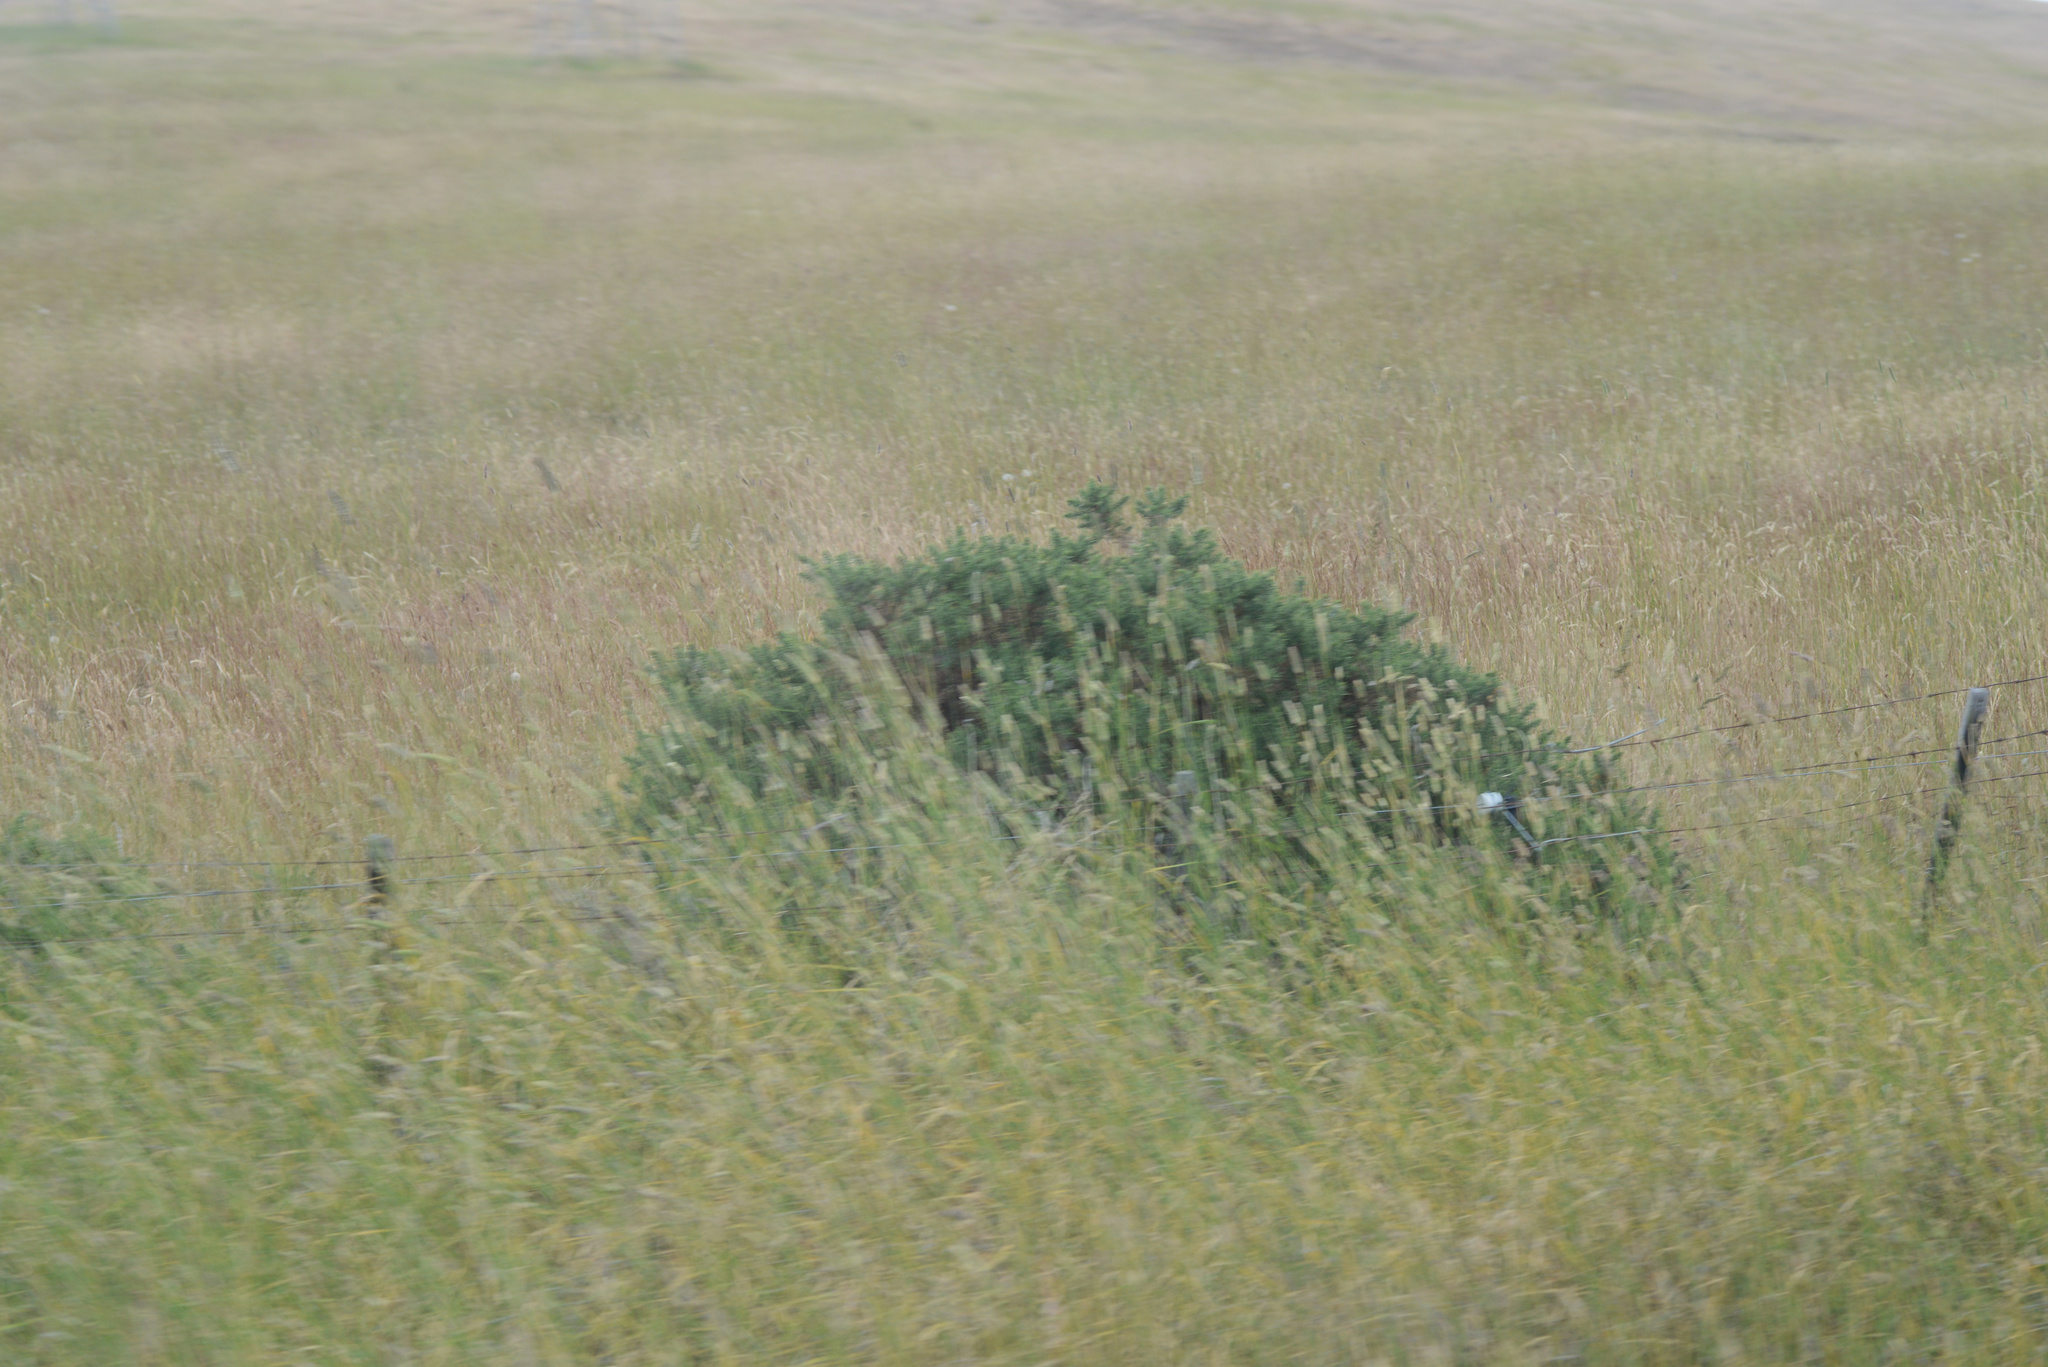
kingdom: Plantae
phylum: Tracheophyta
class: Magnoliopsida
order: Fabales
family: Fabaceae
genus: Ulex
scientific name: Ulex europaeus
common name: Common gorse
